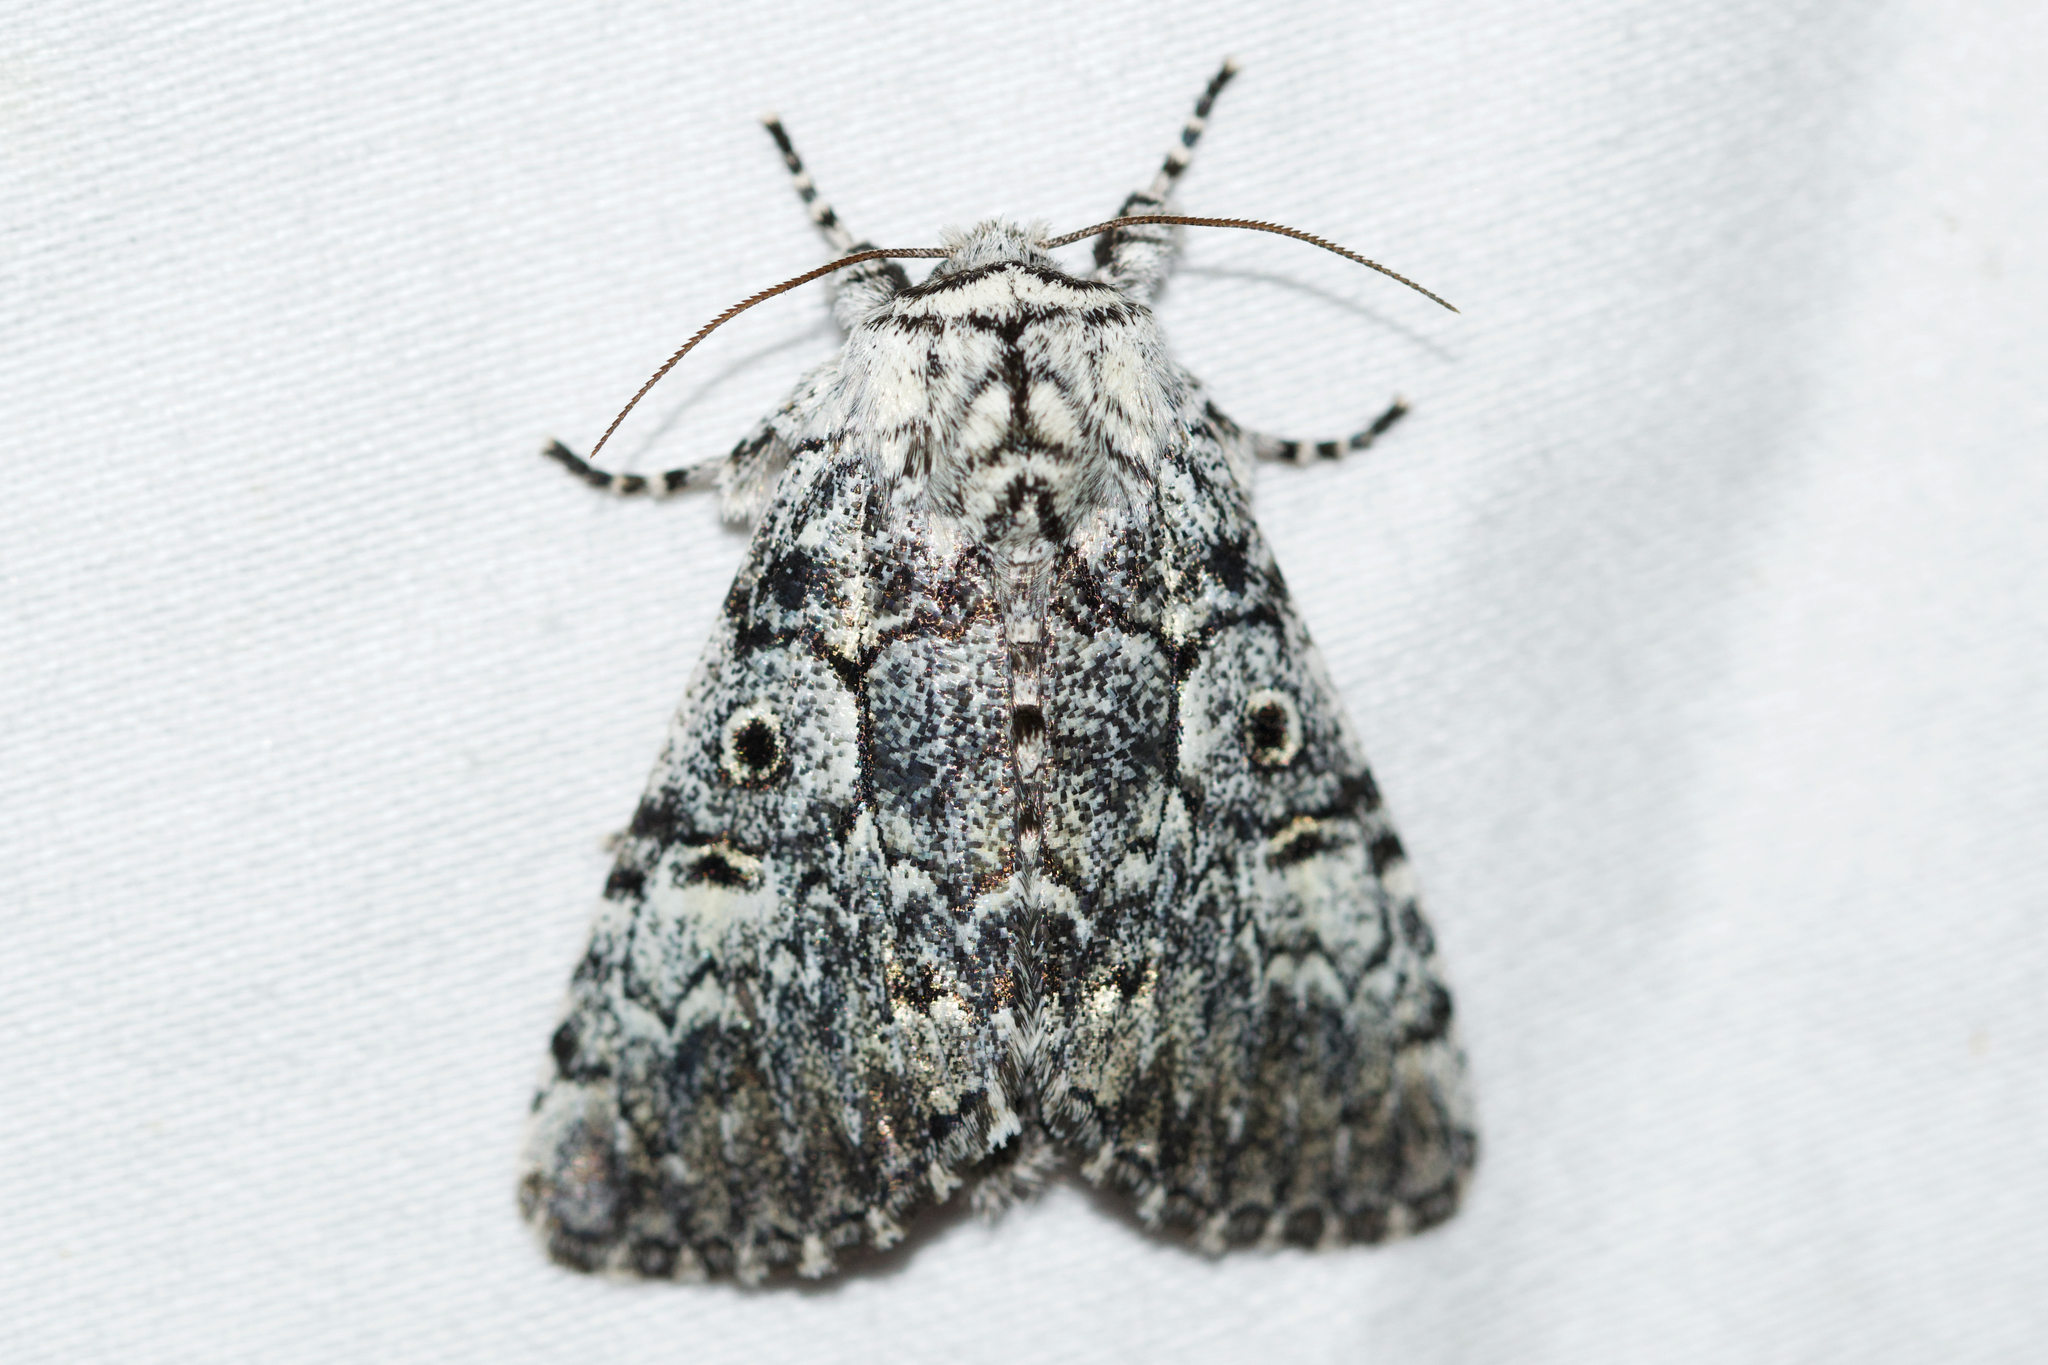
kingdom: Animalia
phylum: Arthropoda
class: Insecta
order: Lepidoptera
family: Noctuidae
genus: Charadra
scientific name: Charadra deridens
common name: Marbled tuffet
